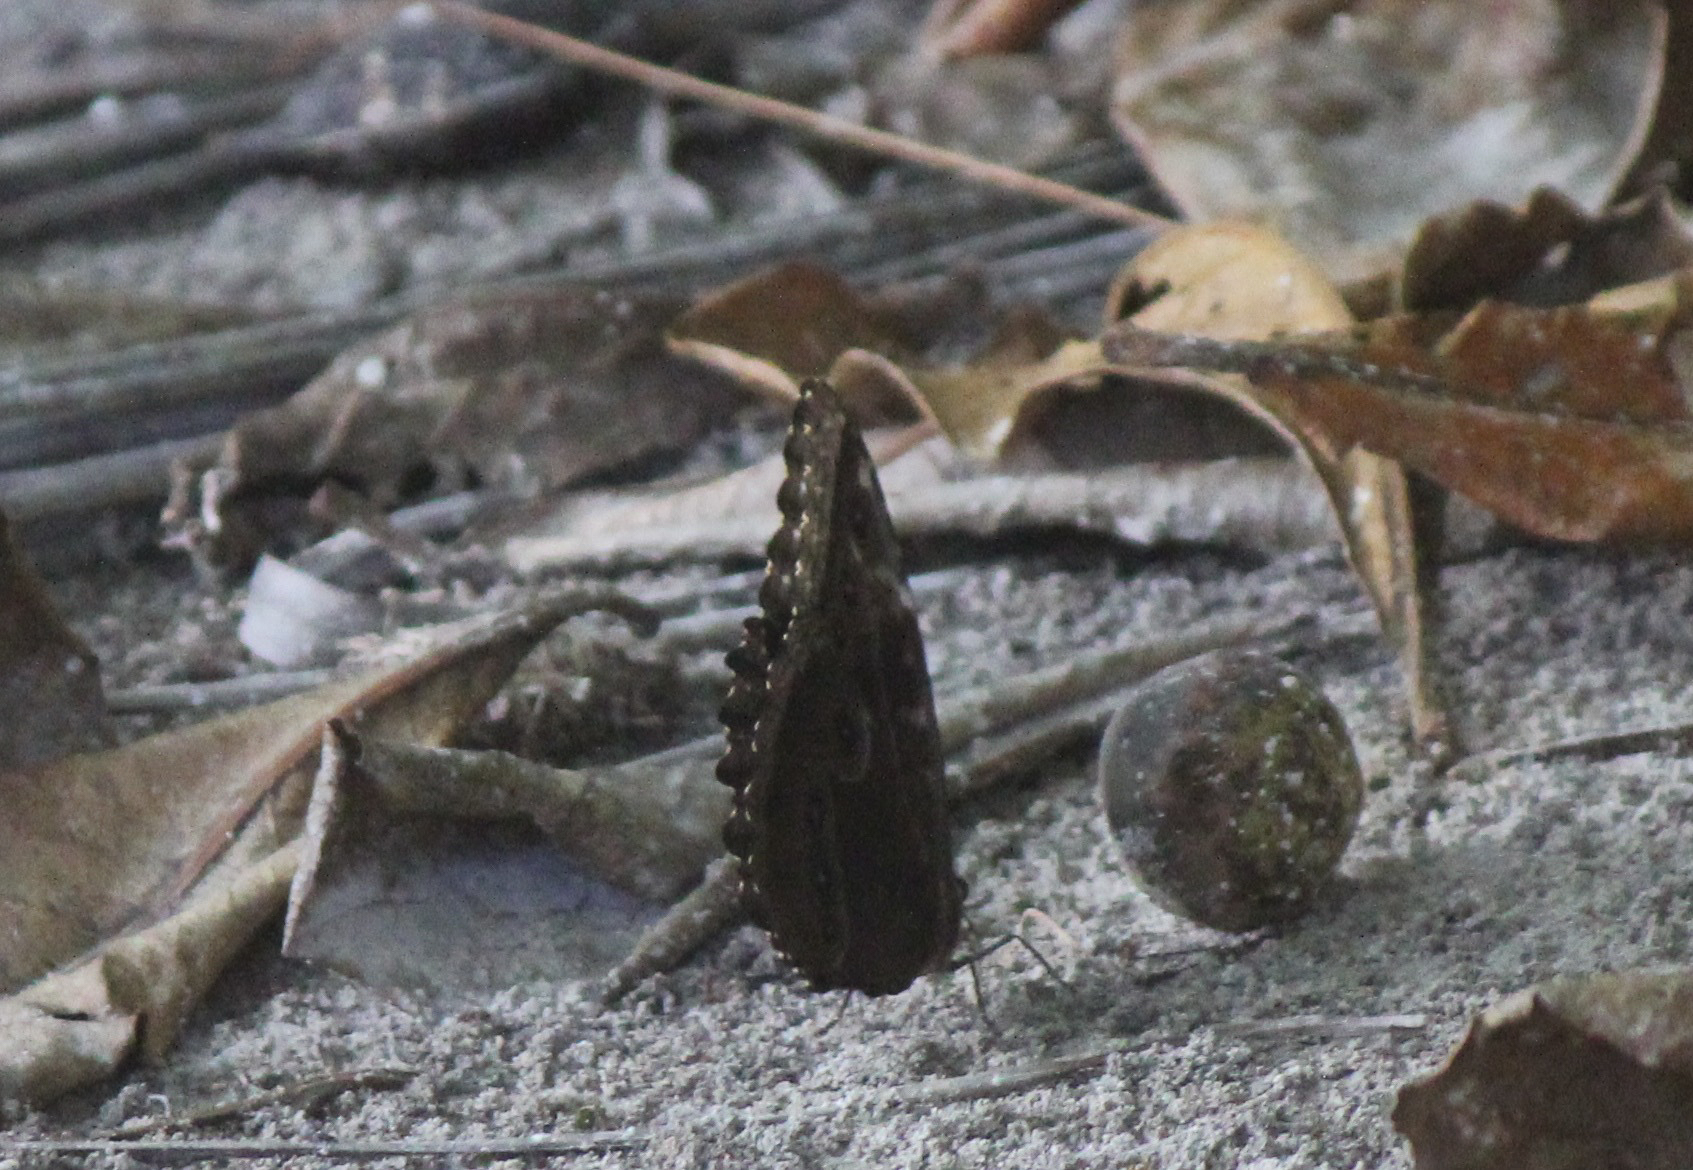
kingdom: Animalia
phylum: Arthropoda
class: Insecta
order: Lepidoptera
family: Nymphalidae
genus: Morpho
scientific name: Morpho helenor
